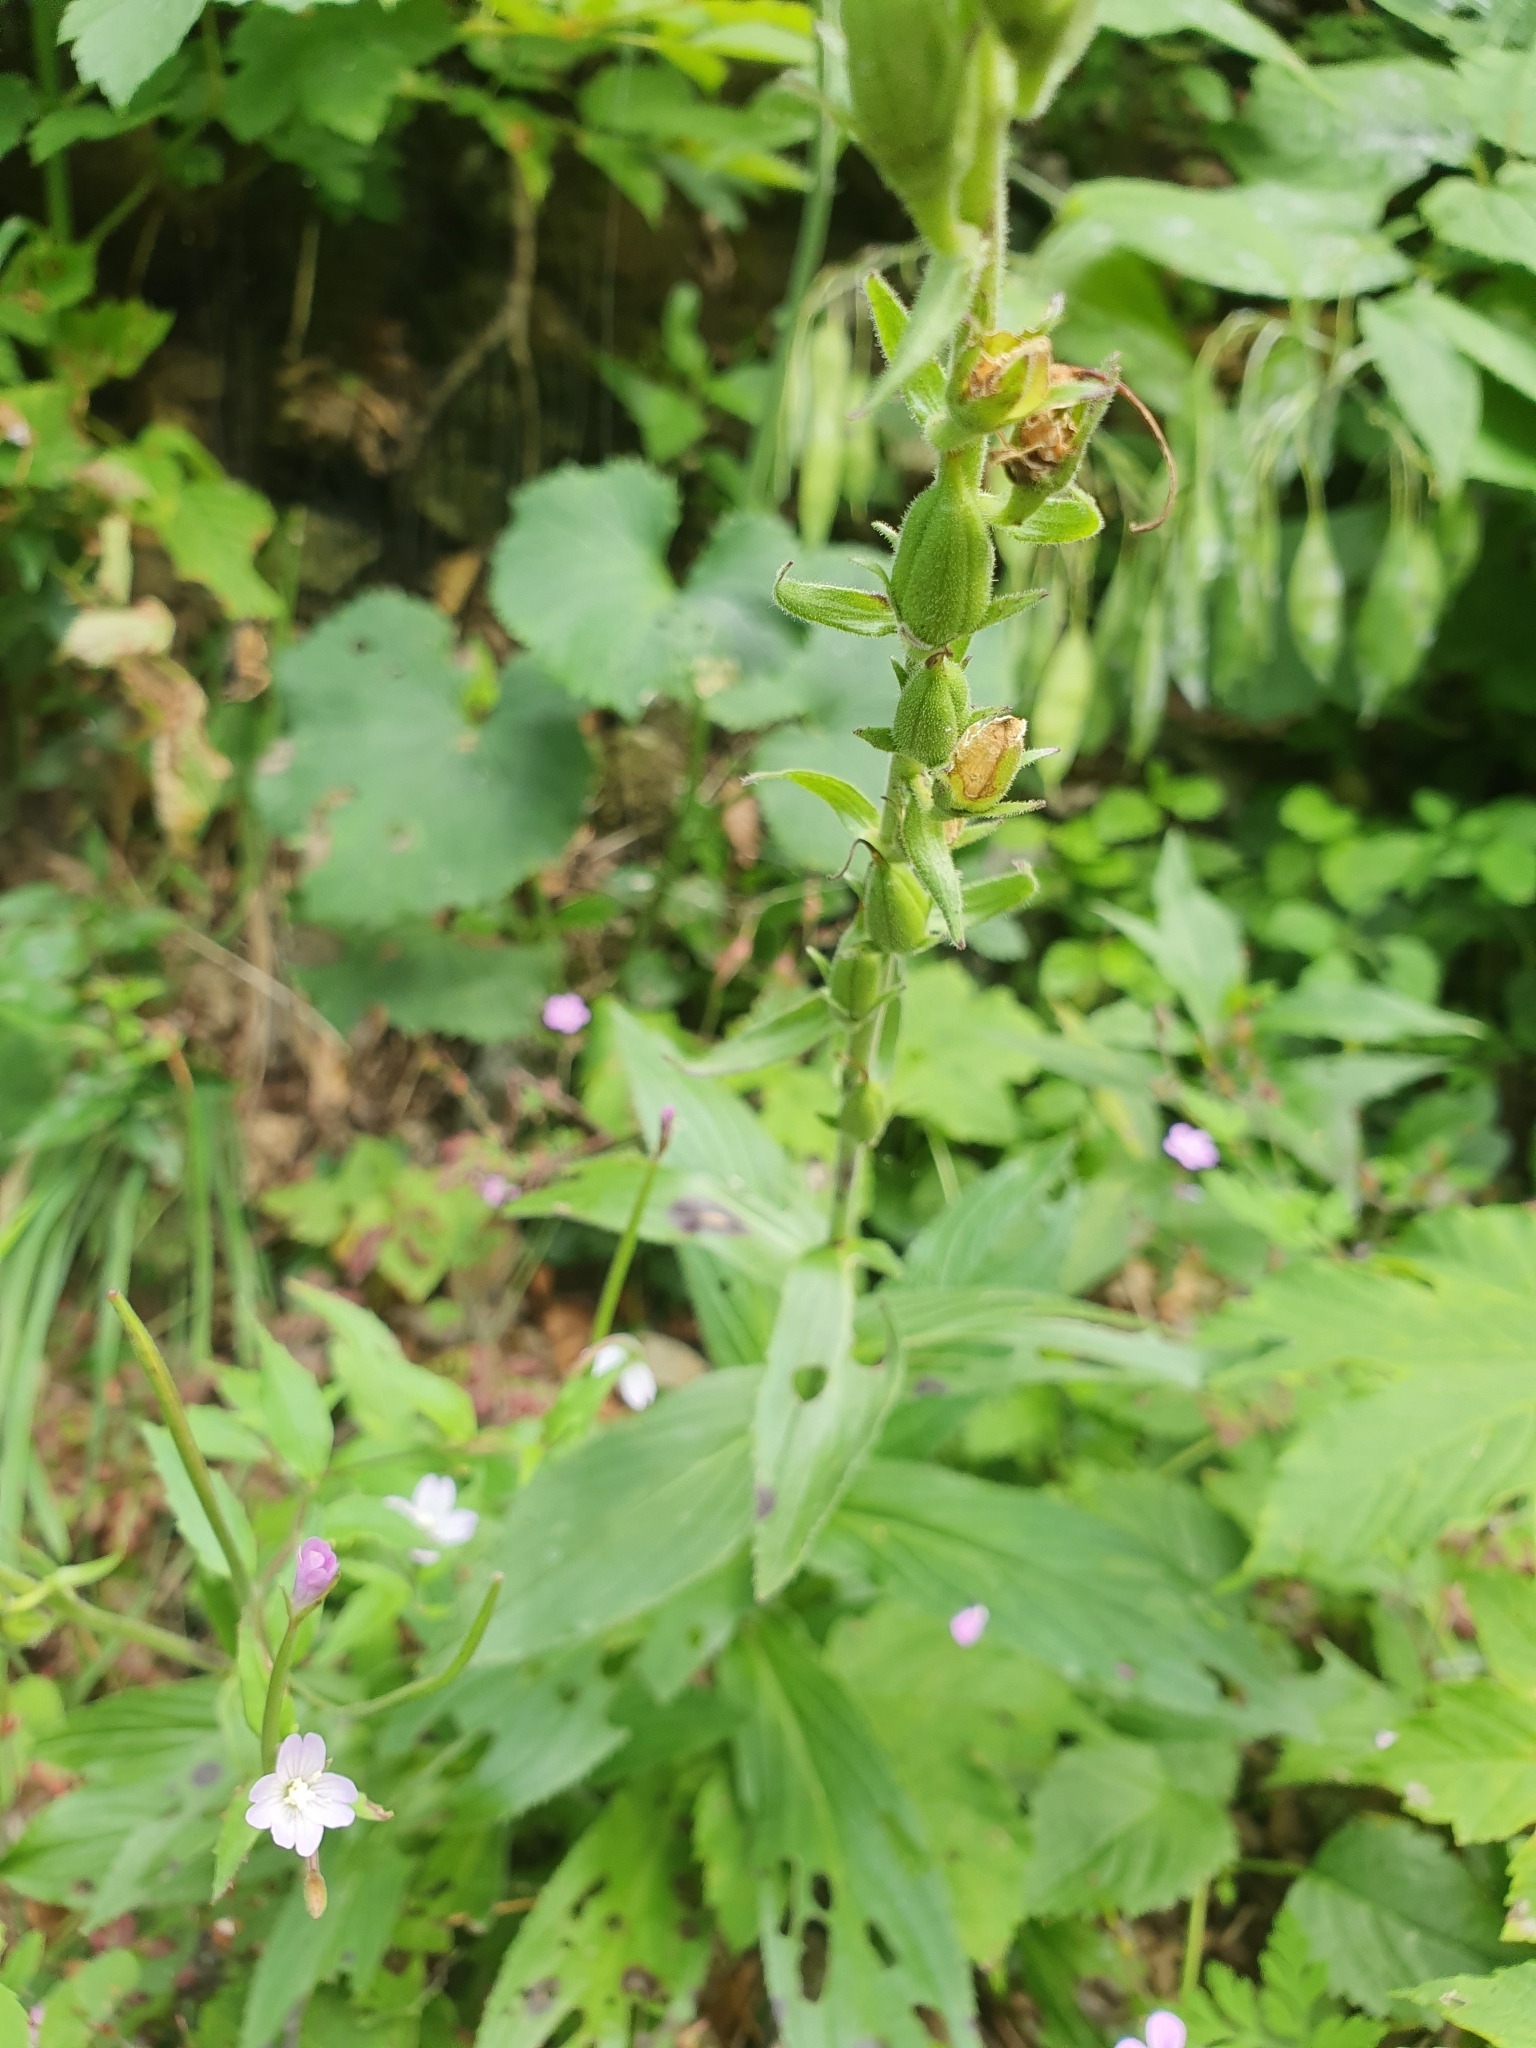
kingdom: Plantae
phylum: Tracheophyta
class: Magnoliopsida
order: Lamiales
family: Plantaginaceae
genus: Digitalis
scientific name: Digitalis grandiflora
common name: Yellow foxglove
